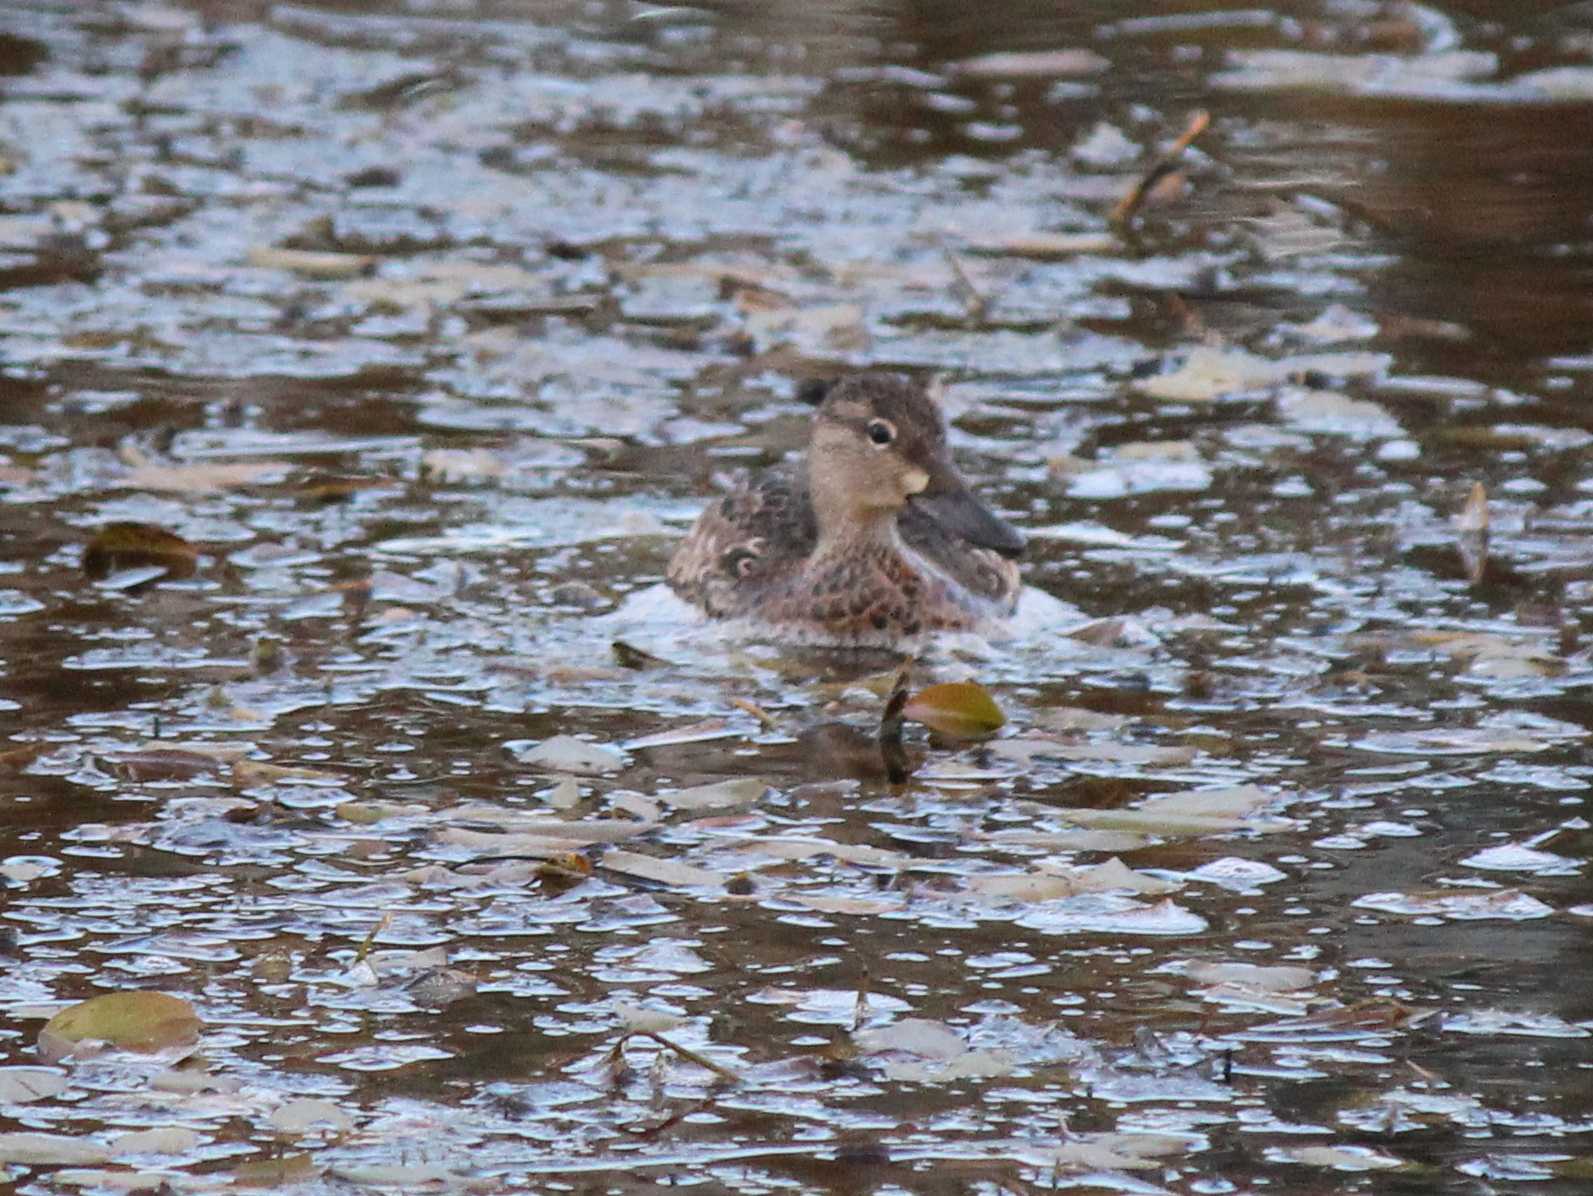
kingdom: Animalia
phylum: Chordata
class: Aves
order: Anseriformes
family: Anatidae
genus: Spatula
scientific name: Spatula discors
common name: Blue-winged teal
